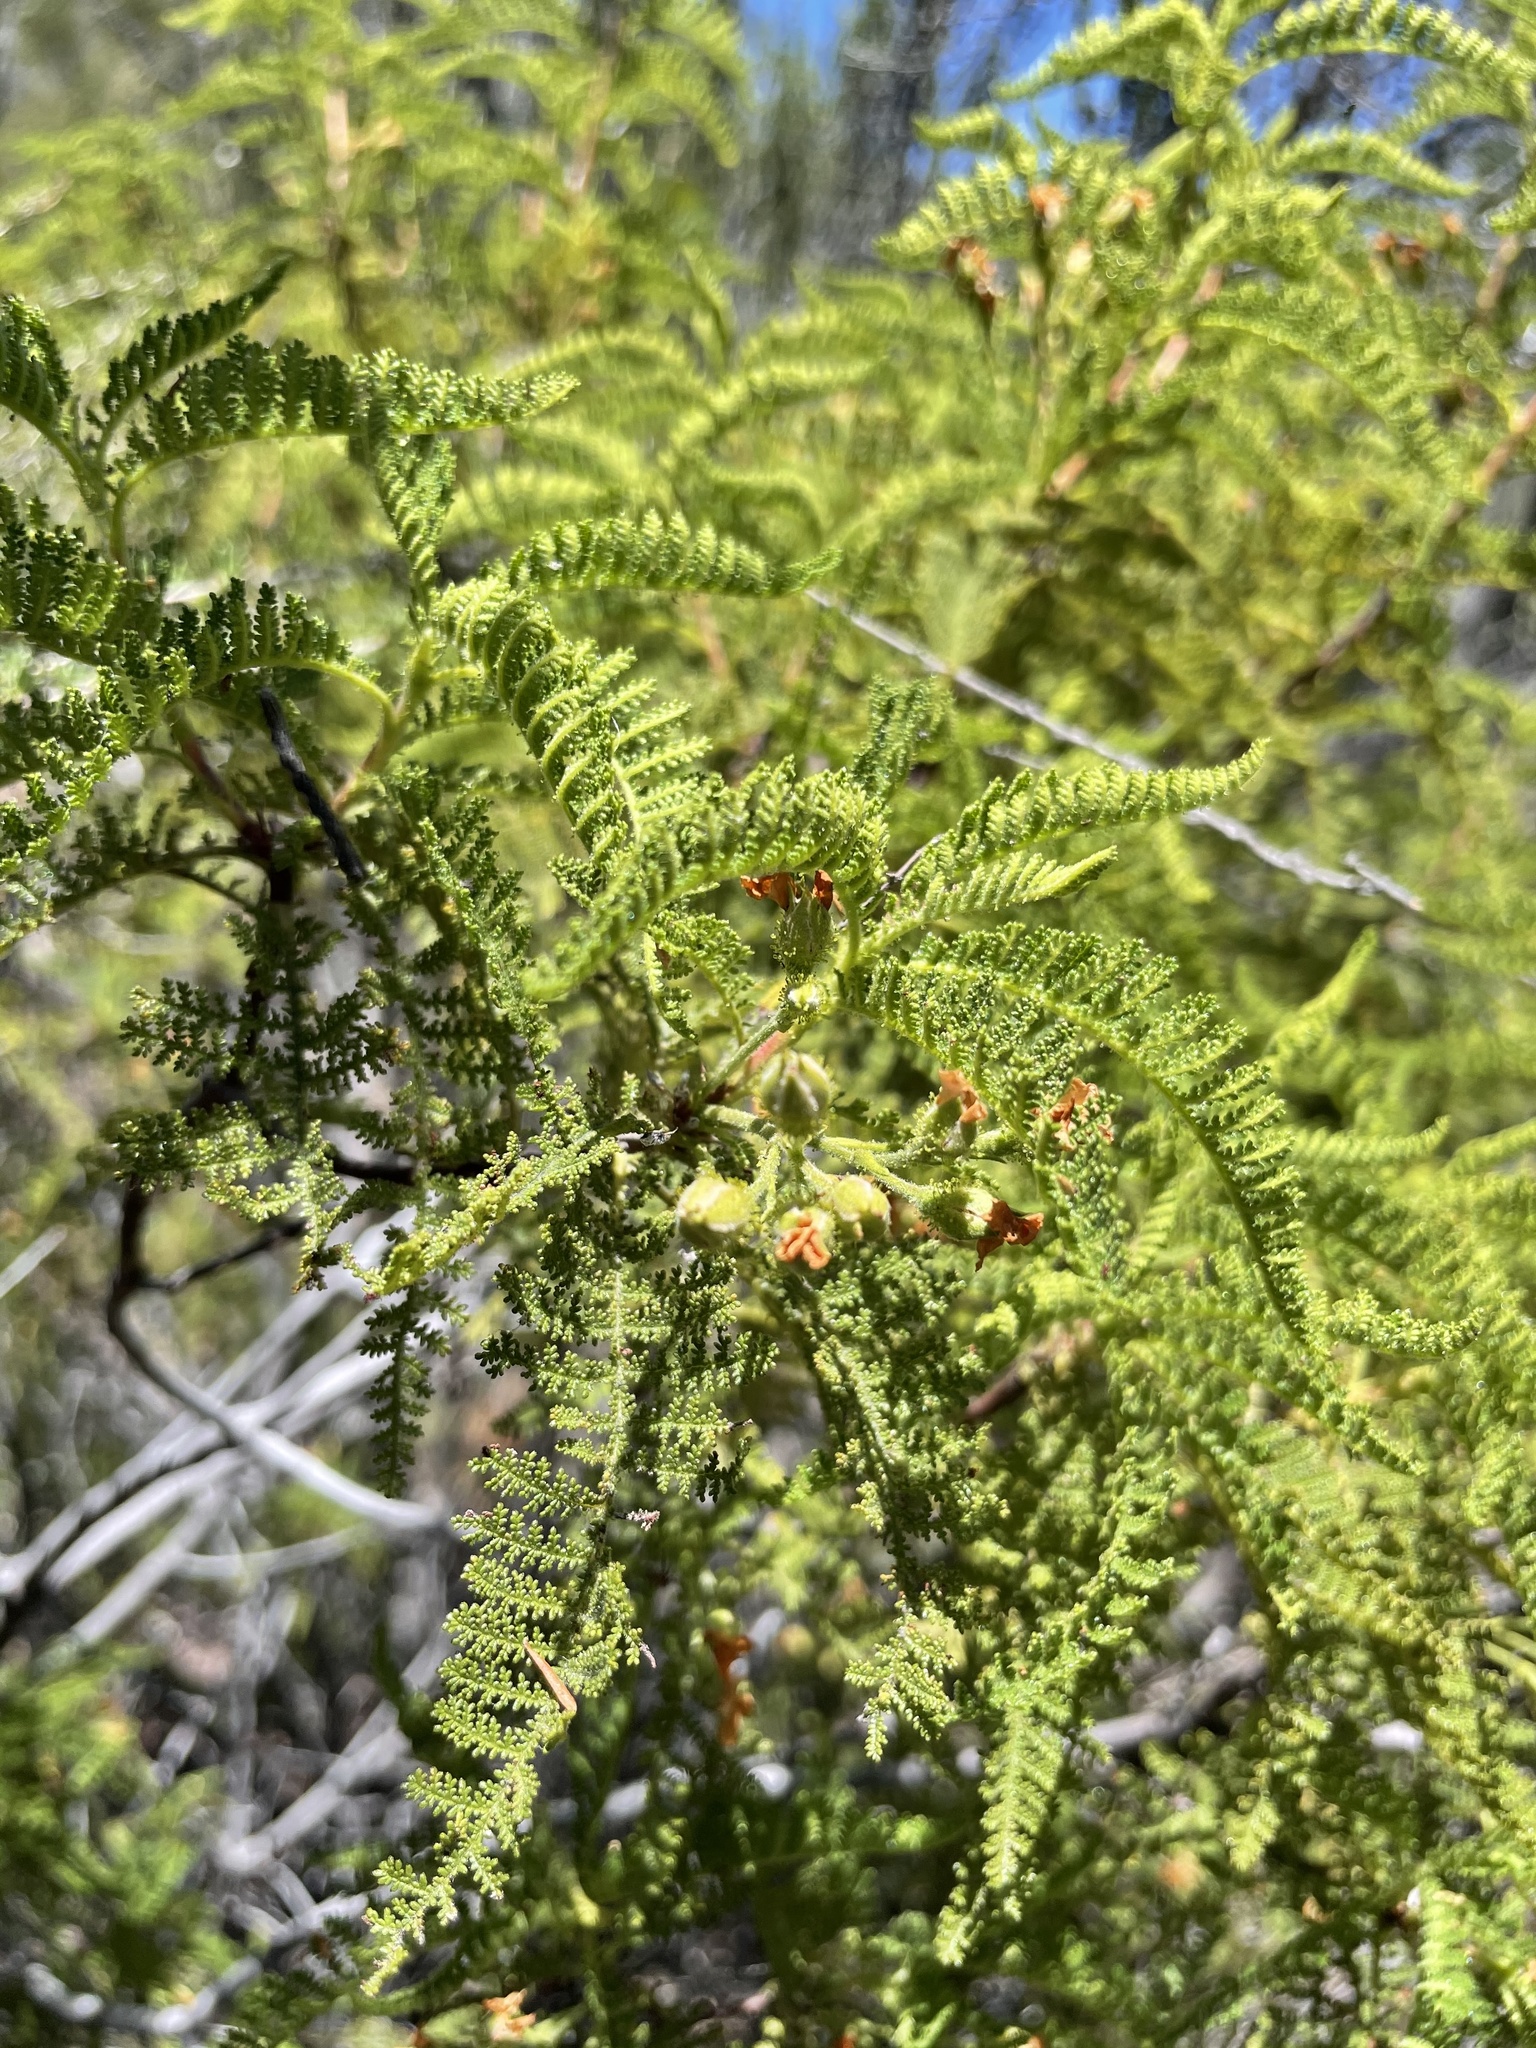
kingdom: Plantae
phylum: Tracheophyta
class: Magnoliopsida
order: Rosales
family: Rosaceae
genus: Chamaebatia
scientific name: Chamaebatia australis
